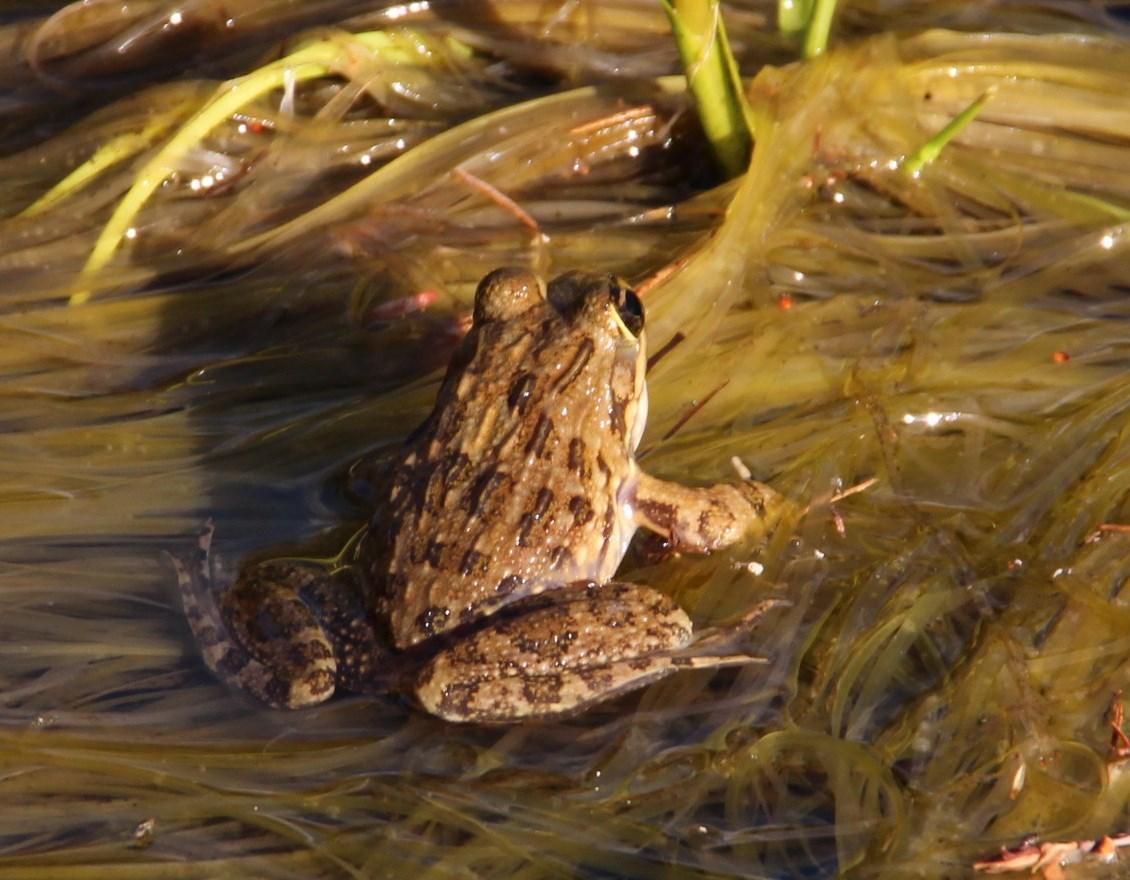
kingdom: Animalia
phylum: Chordata
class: Amphibia
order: Anura
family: Pyxicephalidae
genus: Amietia
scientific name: Amietia fuscigula
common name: Cape rana
